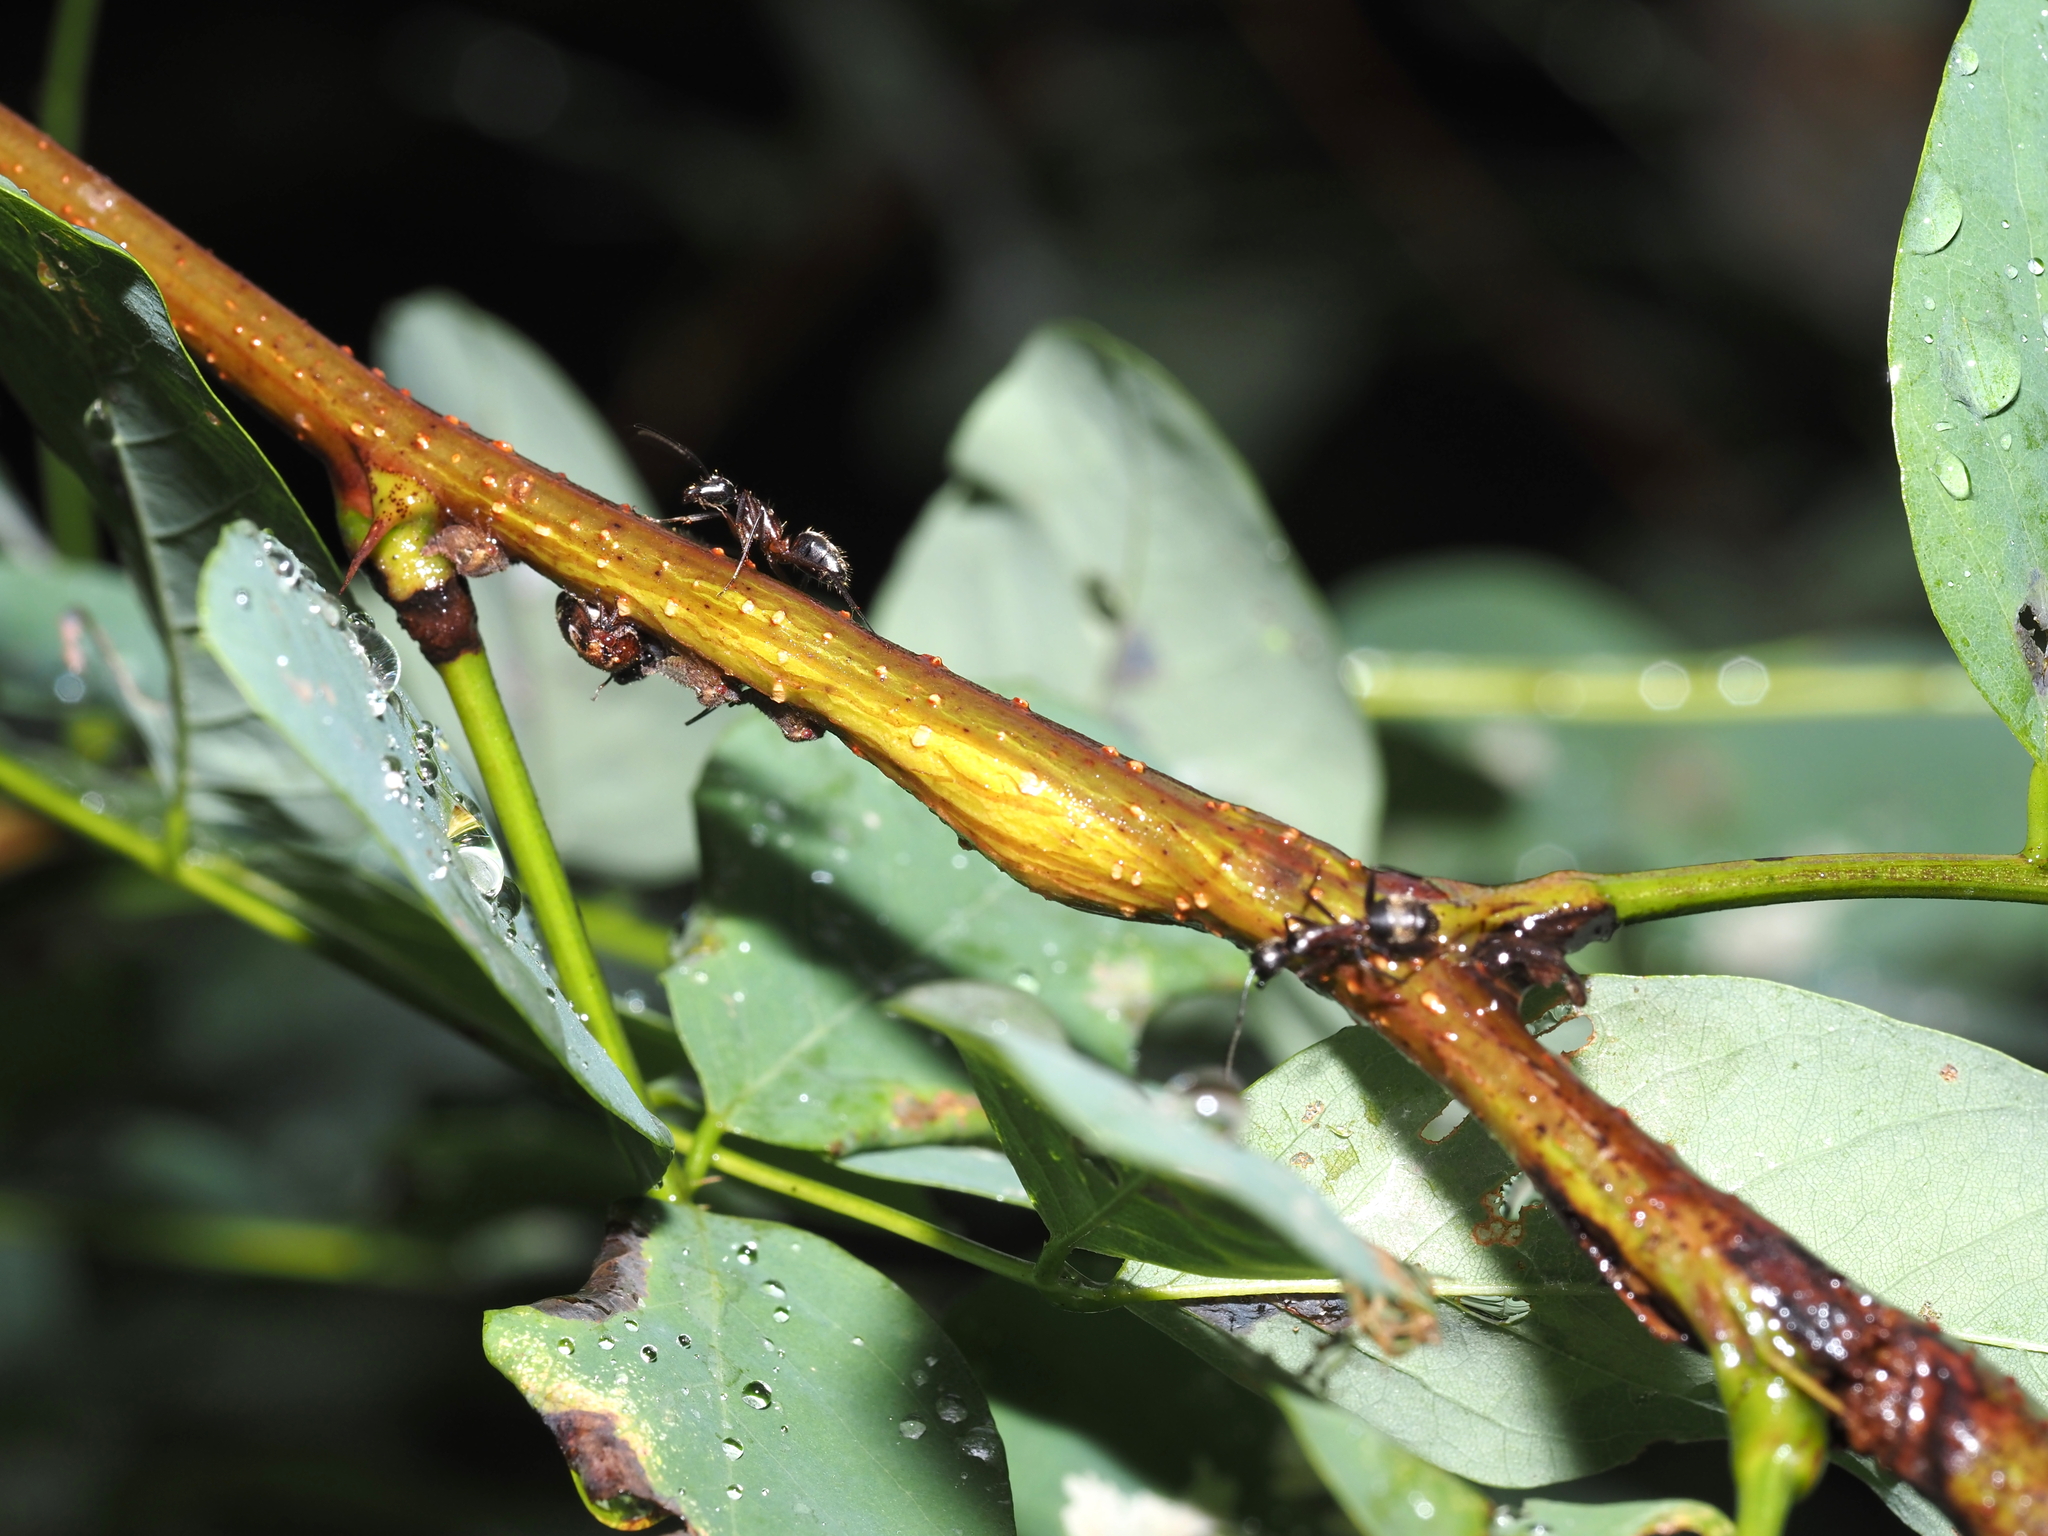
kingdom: Animalia
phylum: Arthropoda
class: Insecta
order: Lepidoptera
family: Tortricidae
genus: Ecdytolopha
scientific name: Ecdytolopha insiticiana
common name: Locust twig borer moth
